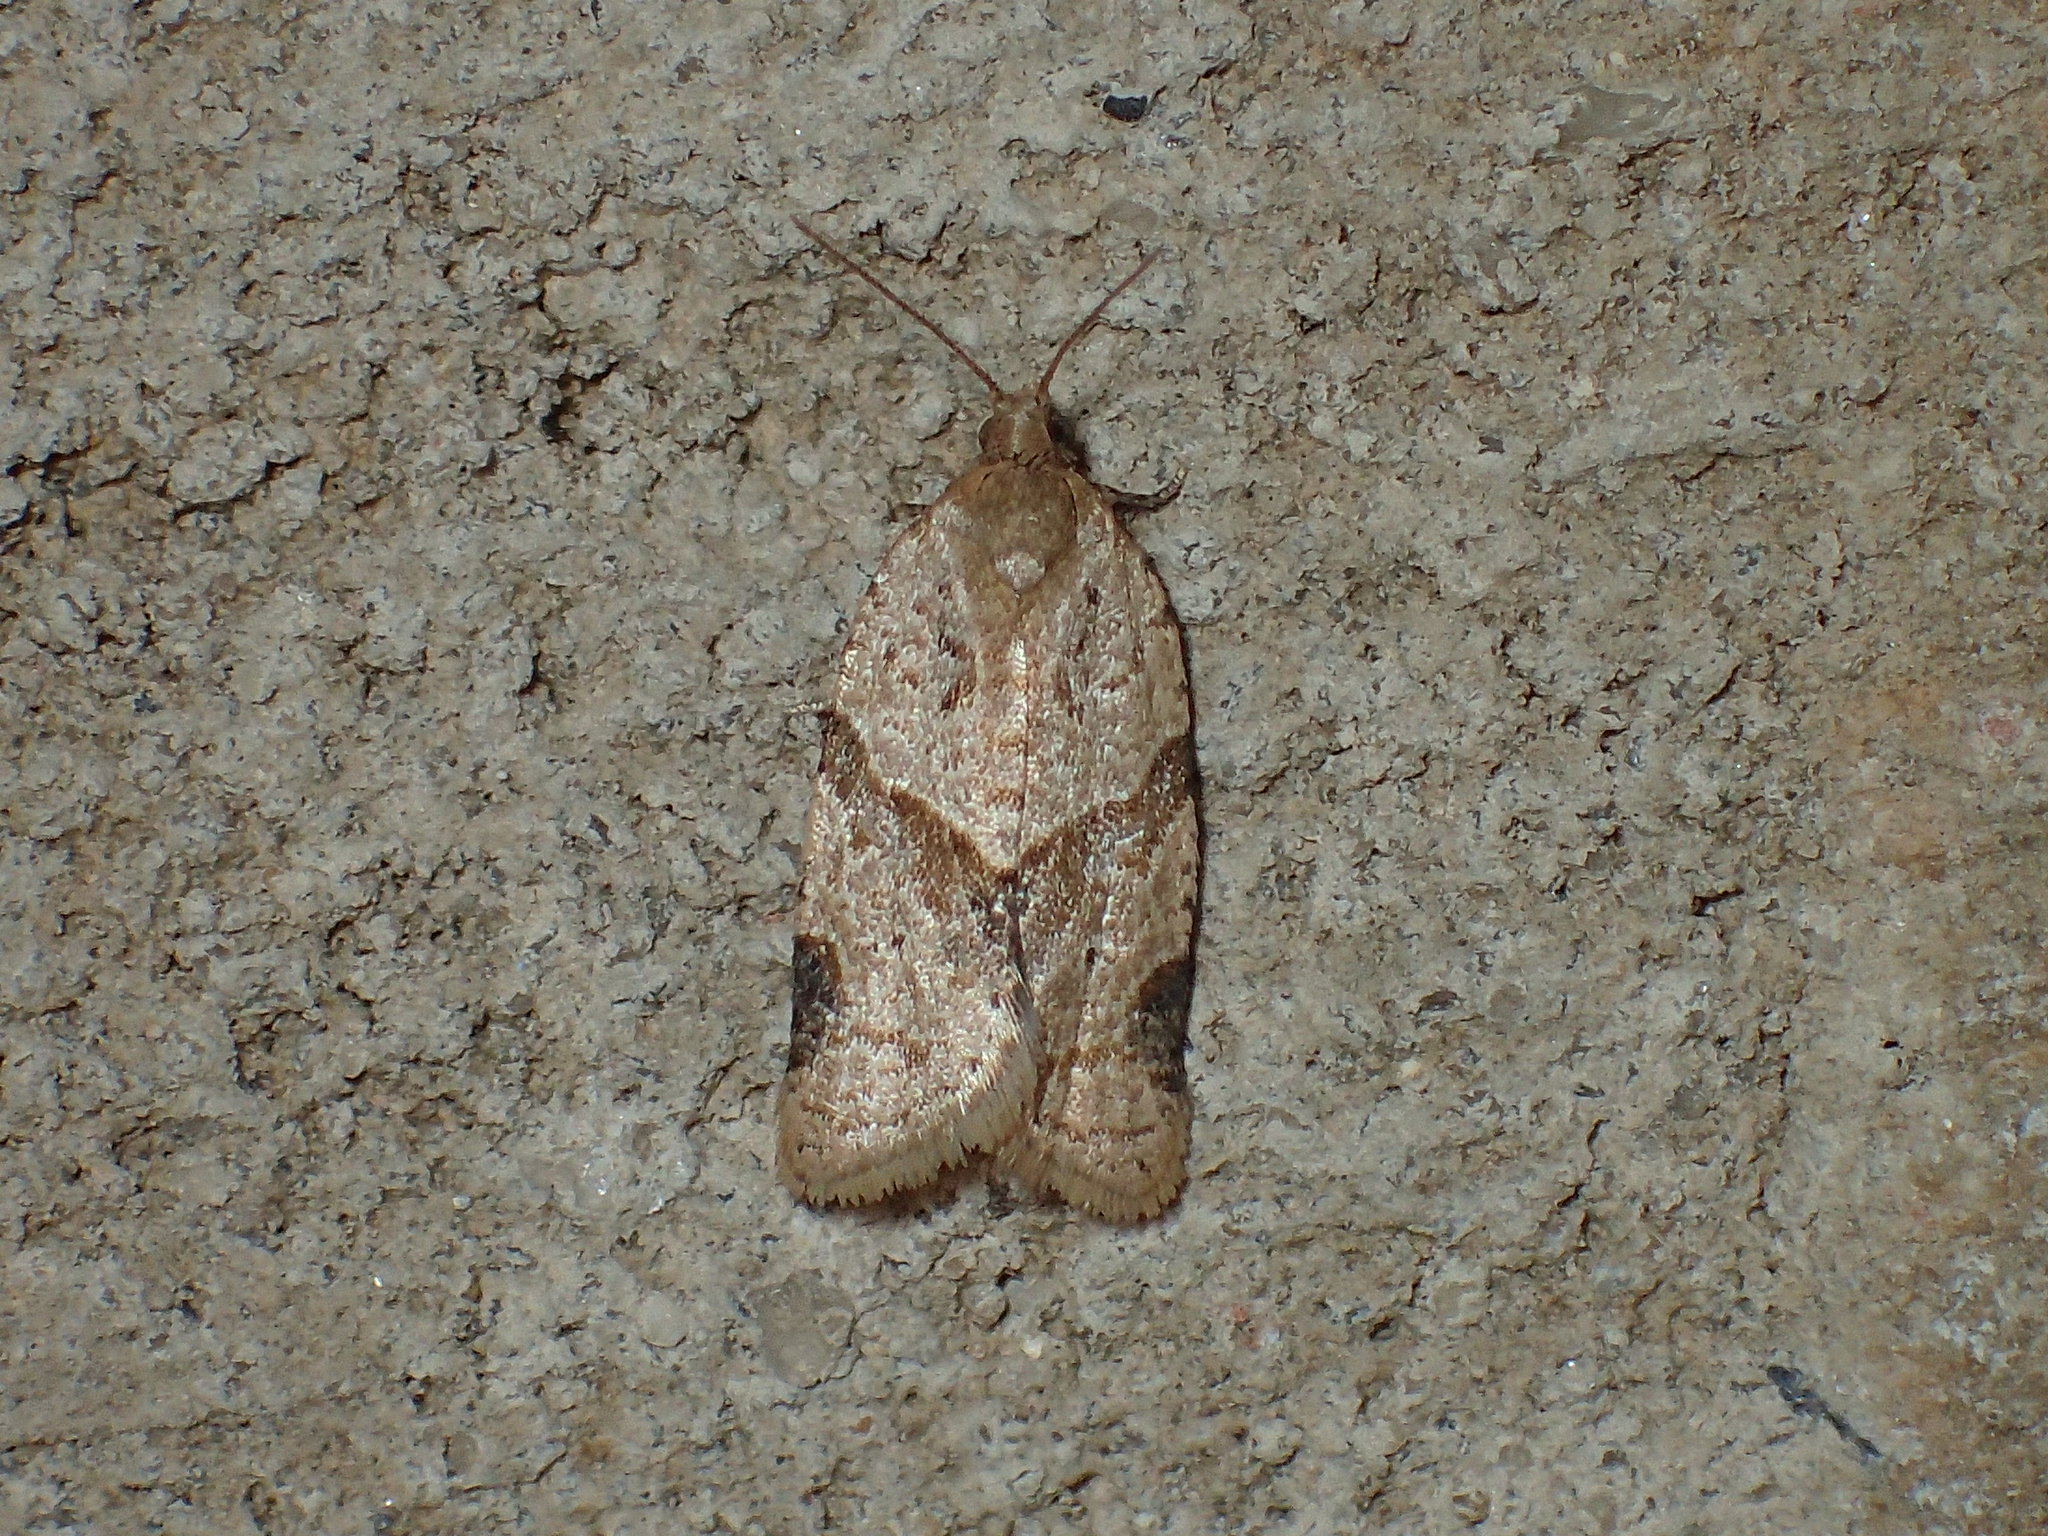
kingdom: Animalia
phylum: Arthropoda
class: Insecta
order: Lepidoptera
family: Tortricidae
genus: Clepsis
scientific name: Clepsis peritana
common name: Garden tortrix
